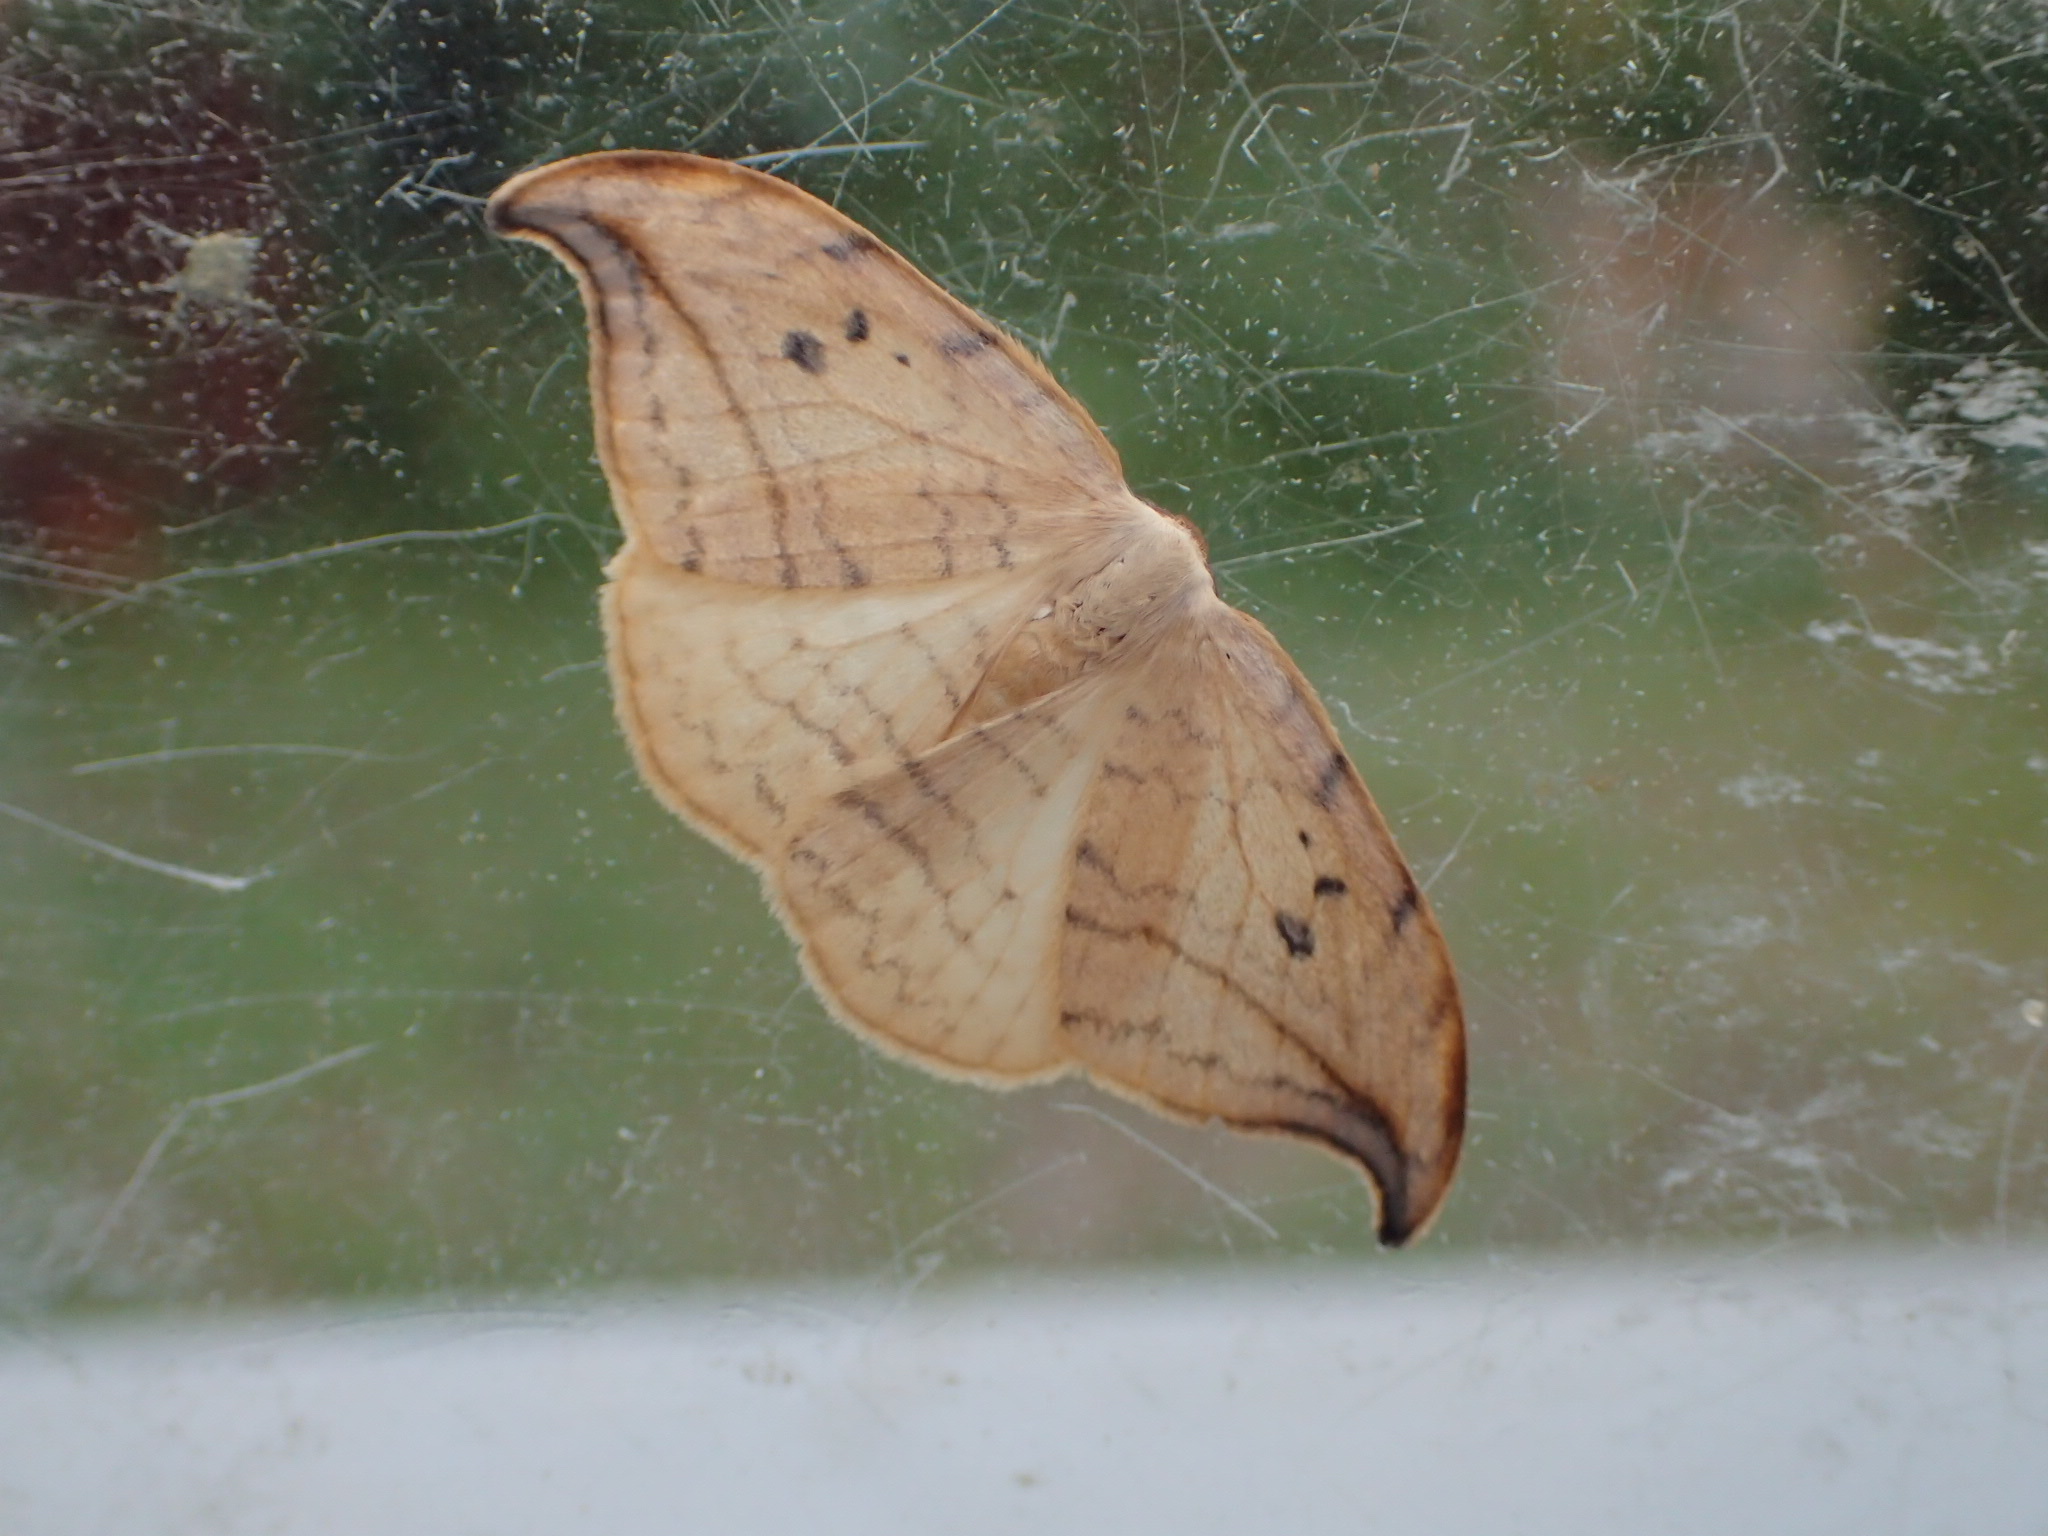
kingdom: Animalia
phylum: Arthropoda
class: Insecta
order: Lepidoptera
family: Drepanidae
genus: Drepana
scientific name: Drepana arcuata
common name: Arched hooktip moth
